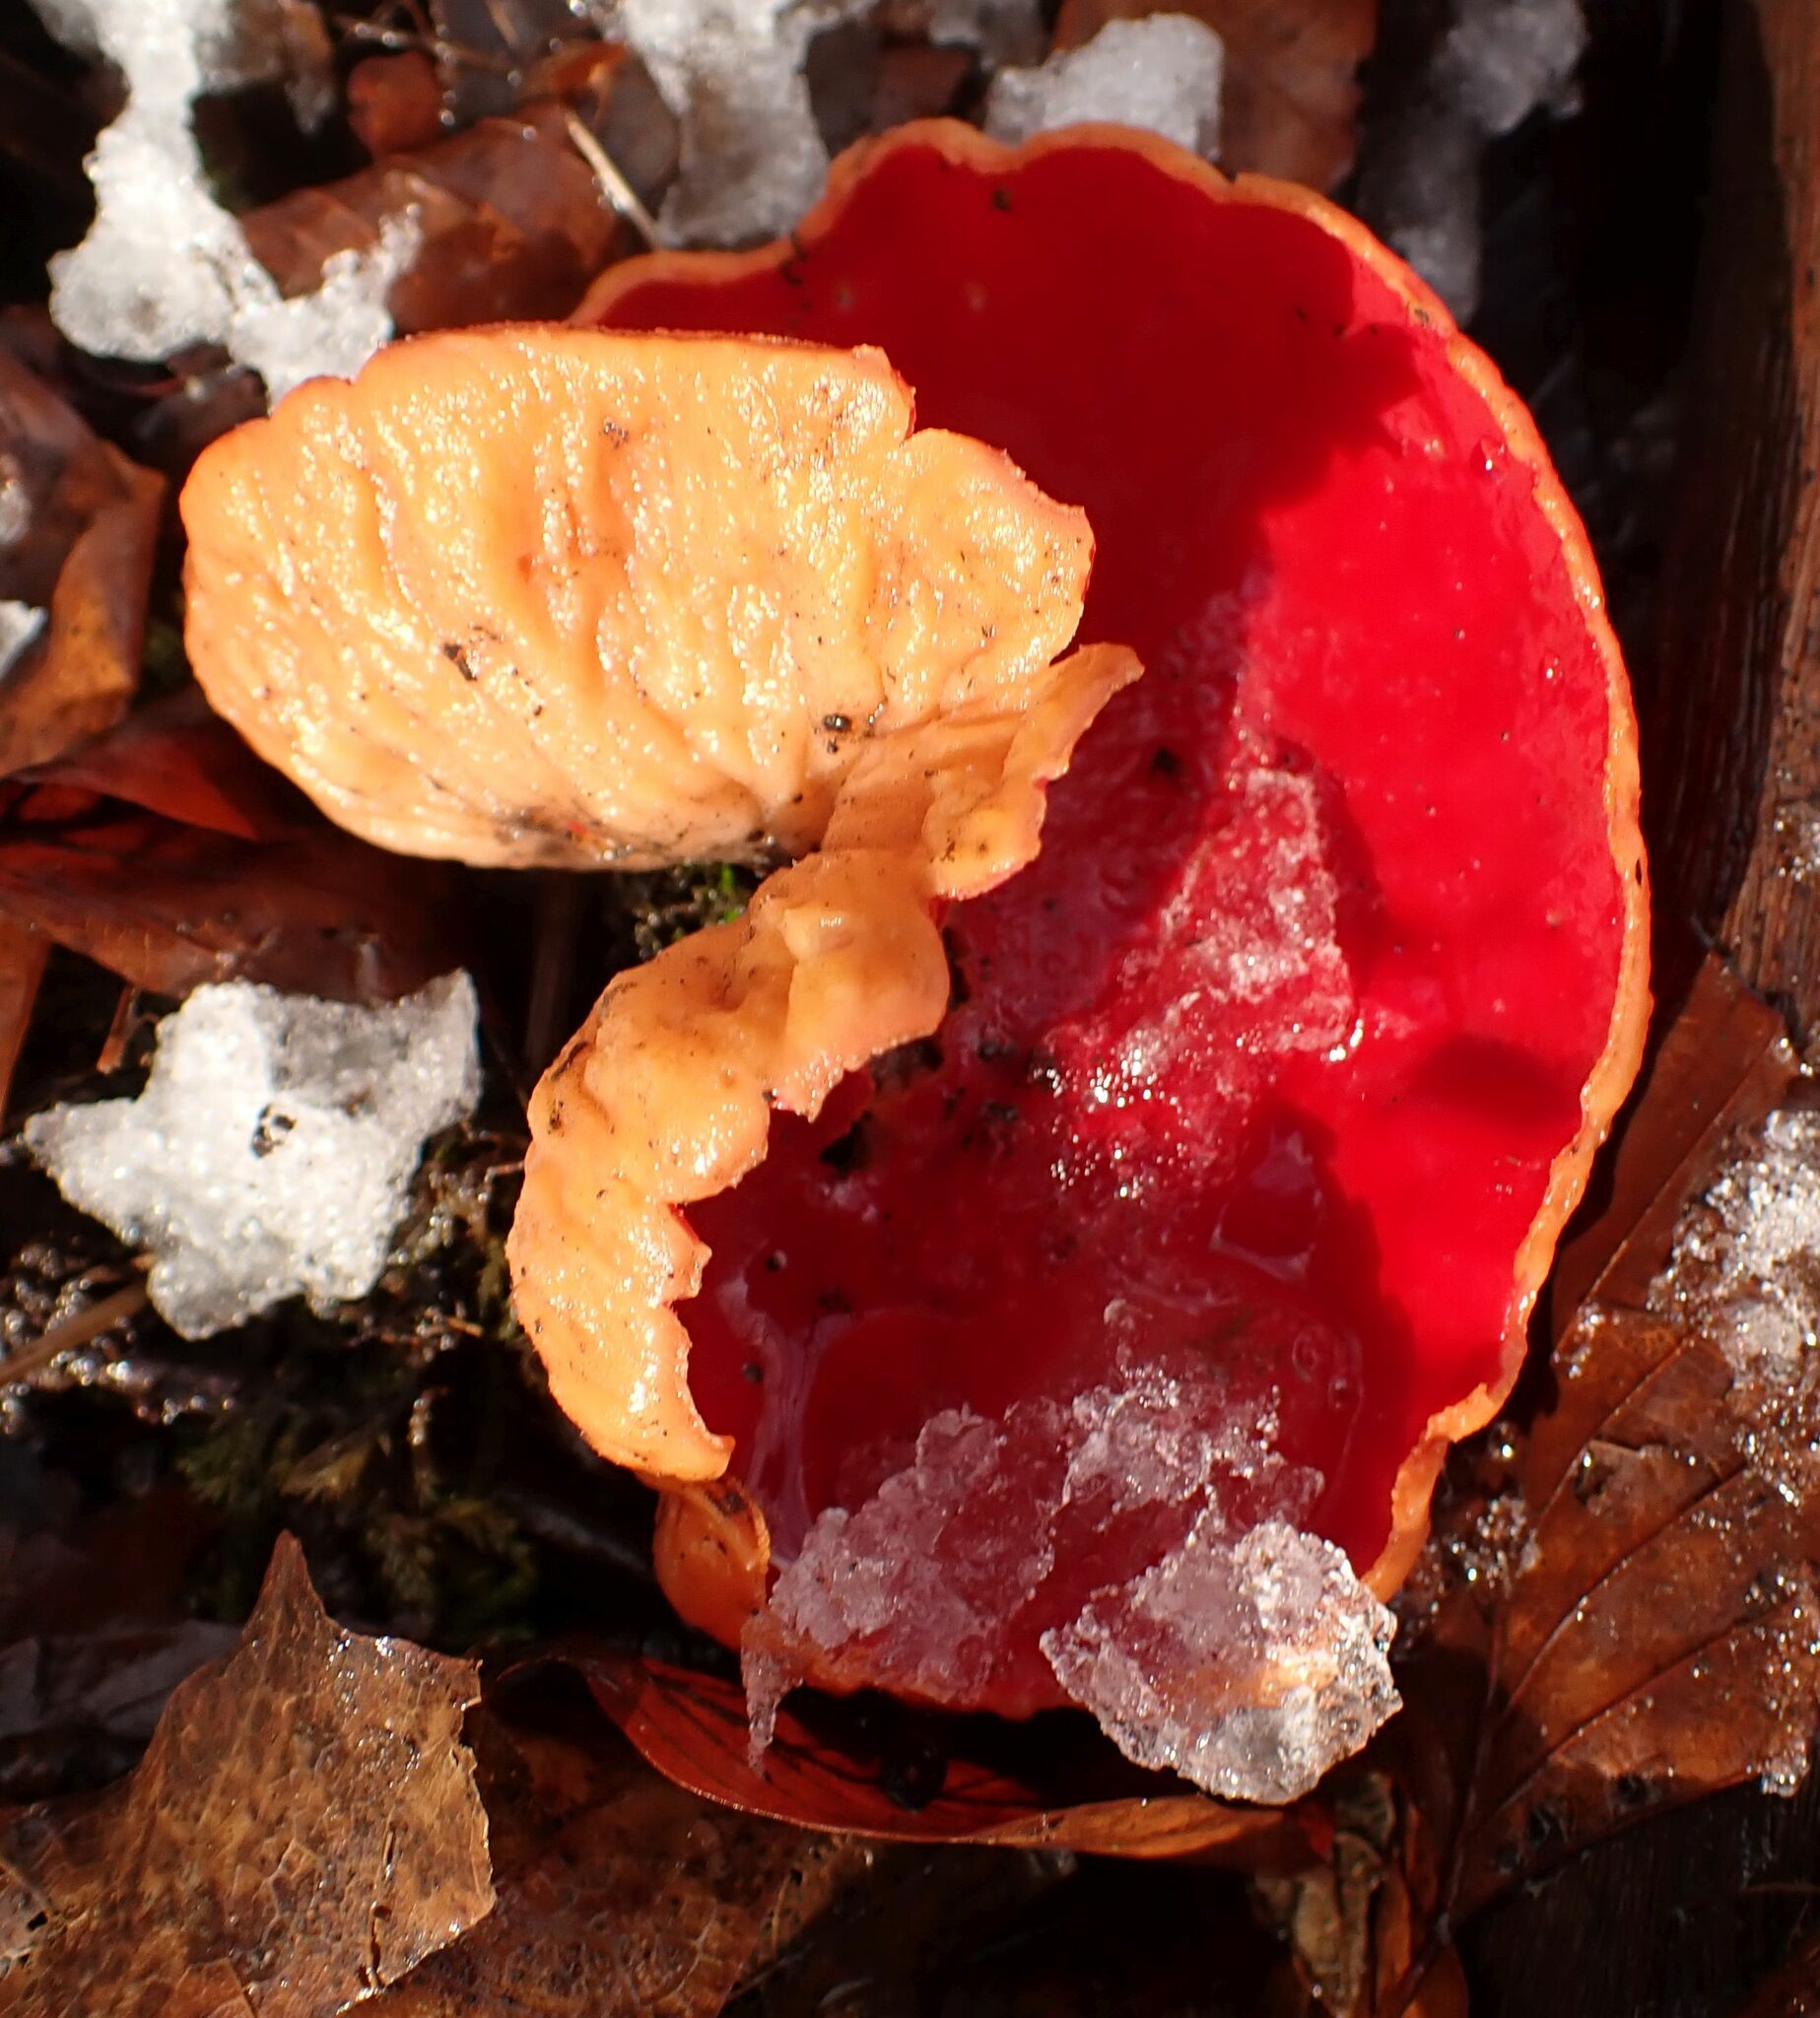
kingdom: Fungi
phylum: Ascomycota
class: Pezizomycetes
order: Pezizales
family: Sarcoscyphaceae
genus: Sarcoscypha
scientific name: Sarcoscypha
